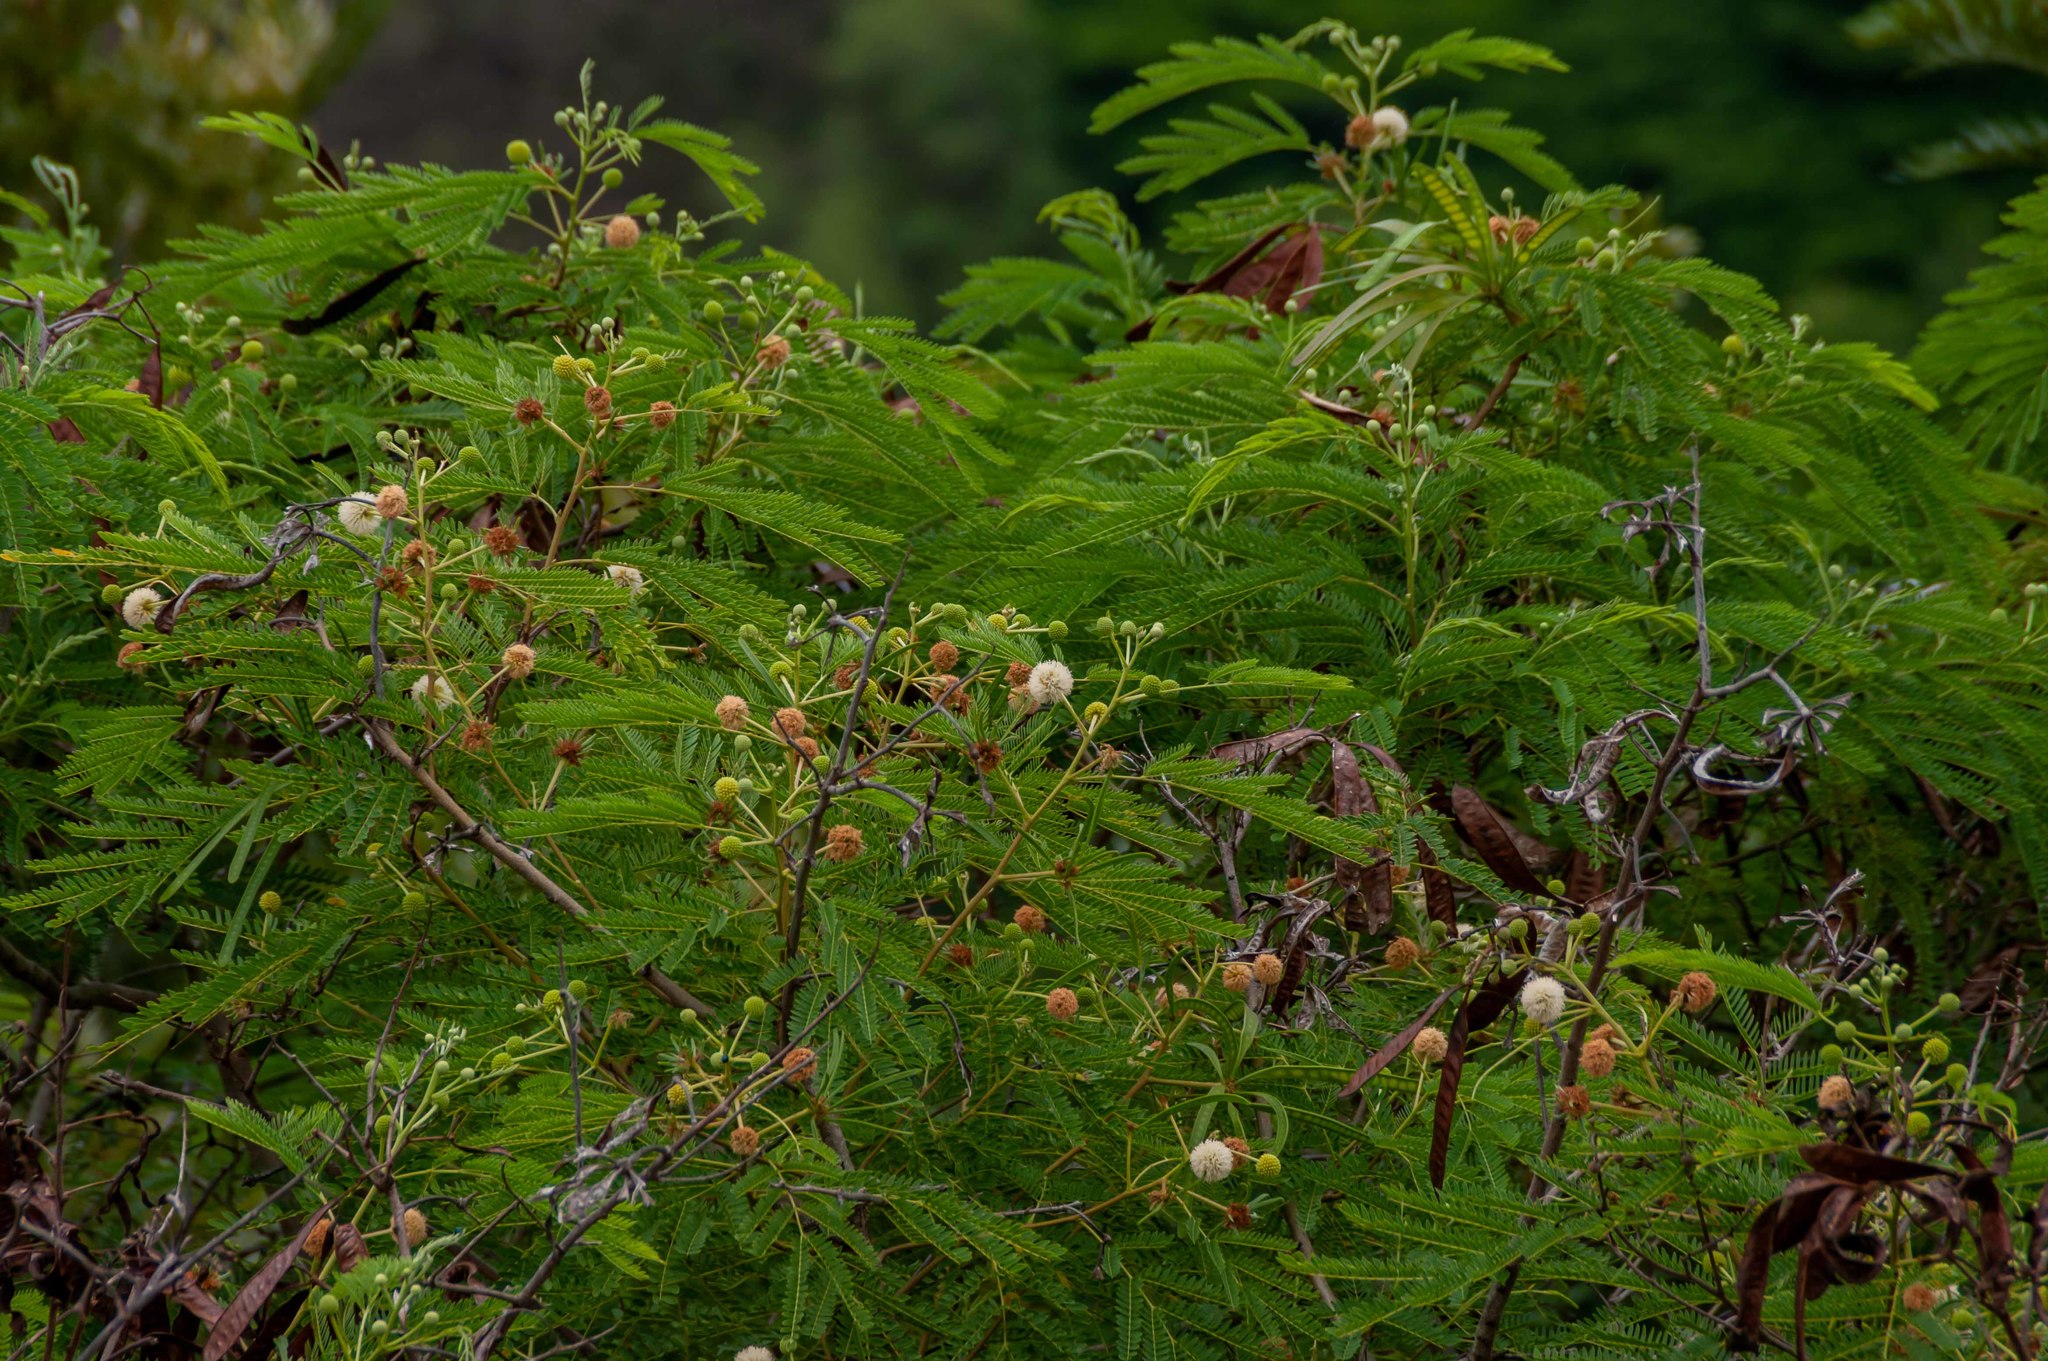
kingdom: Plantae
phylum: Tracheophyta
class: Magnoliopsida
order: Fabales
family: Fabaceae
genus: Leucaena
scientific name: Leucaena leucocephala
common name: White leadtree
